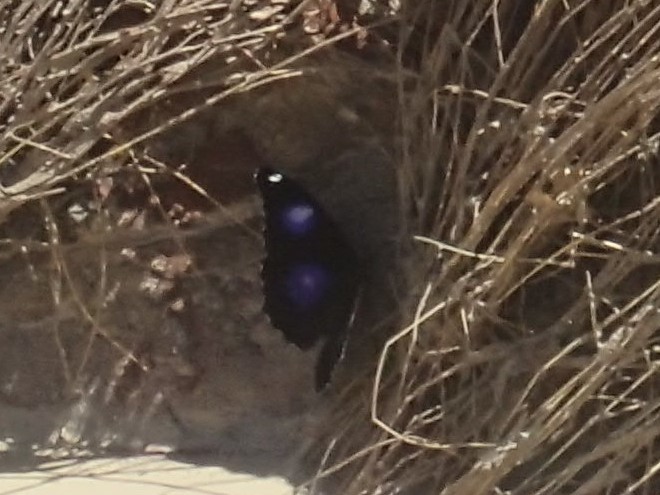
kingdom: Animalia
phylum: Arthropoda
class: Insecta
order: Lepidoptera
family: Nymphalidae
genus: Hypolimnas
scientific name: Hypolimnas bolina
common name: Great eggfly
